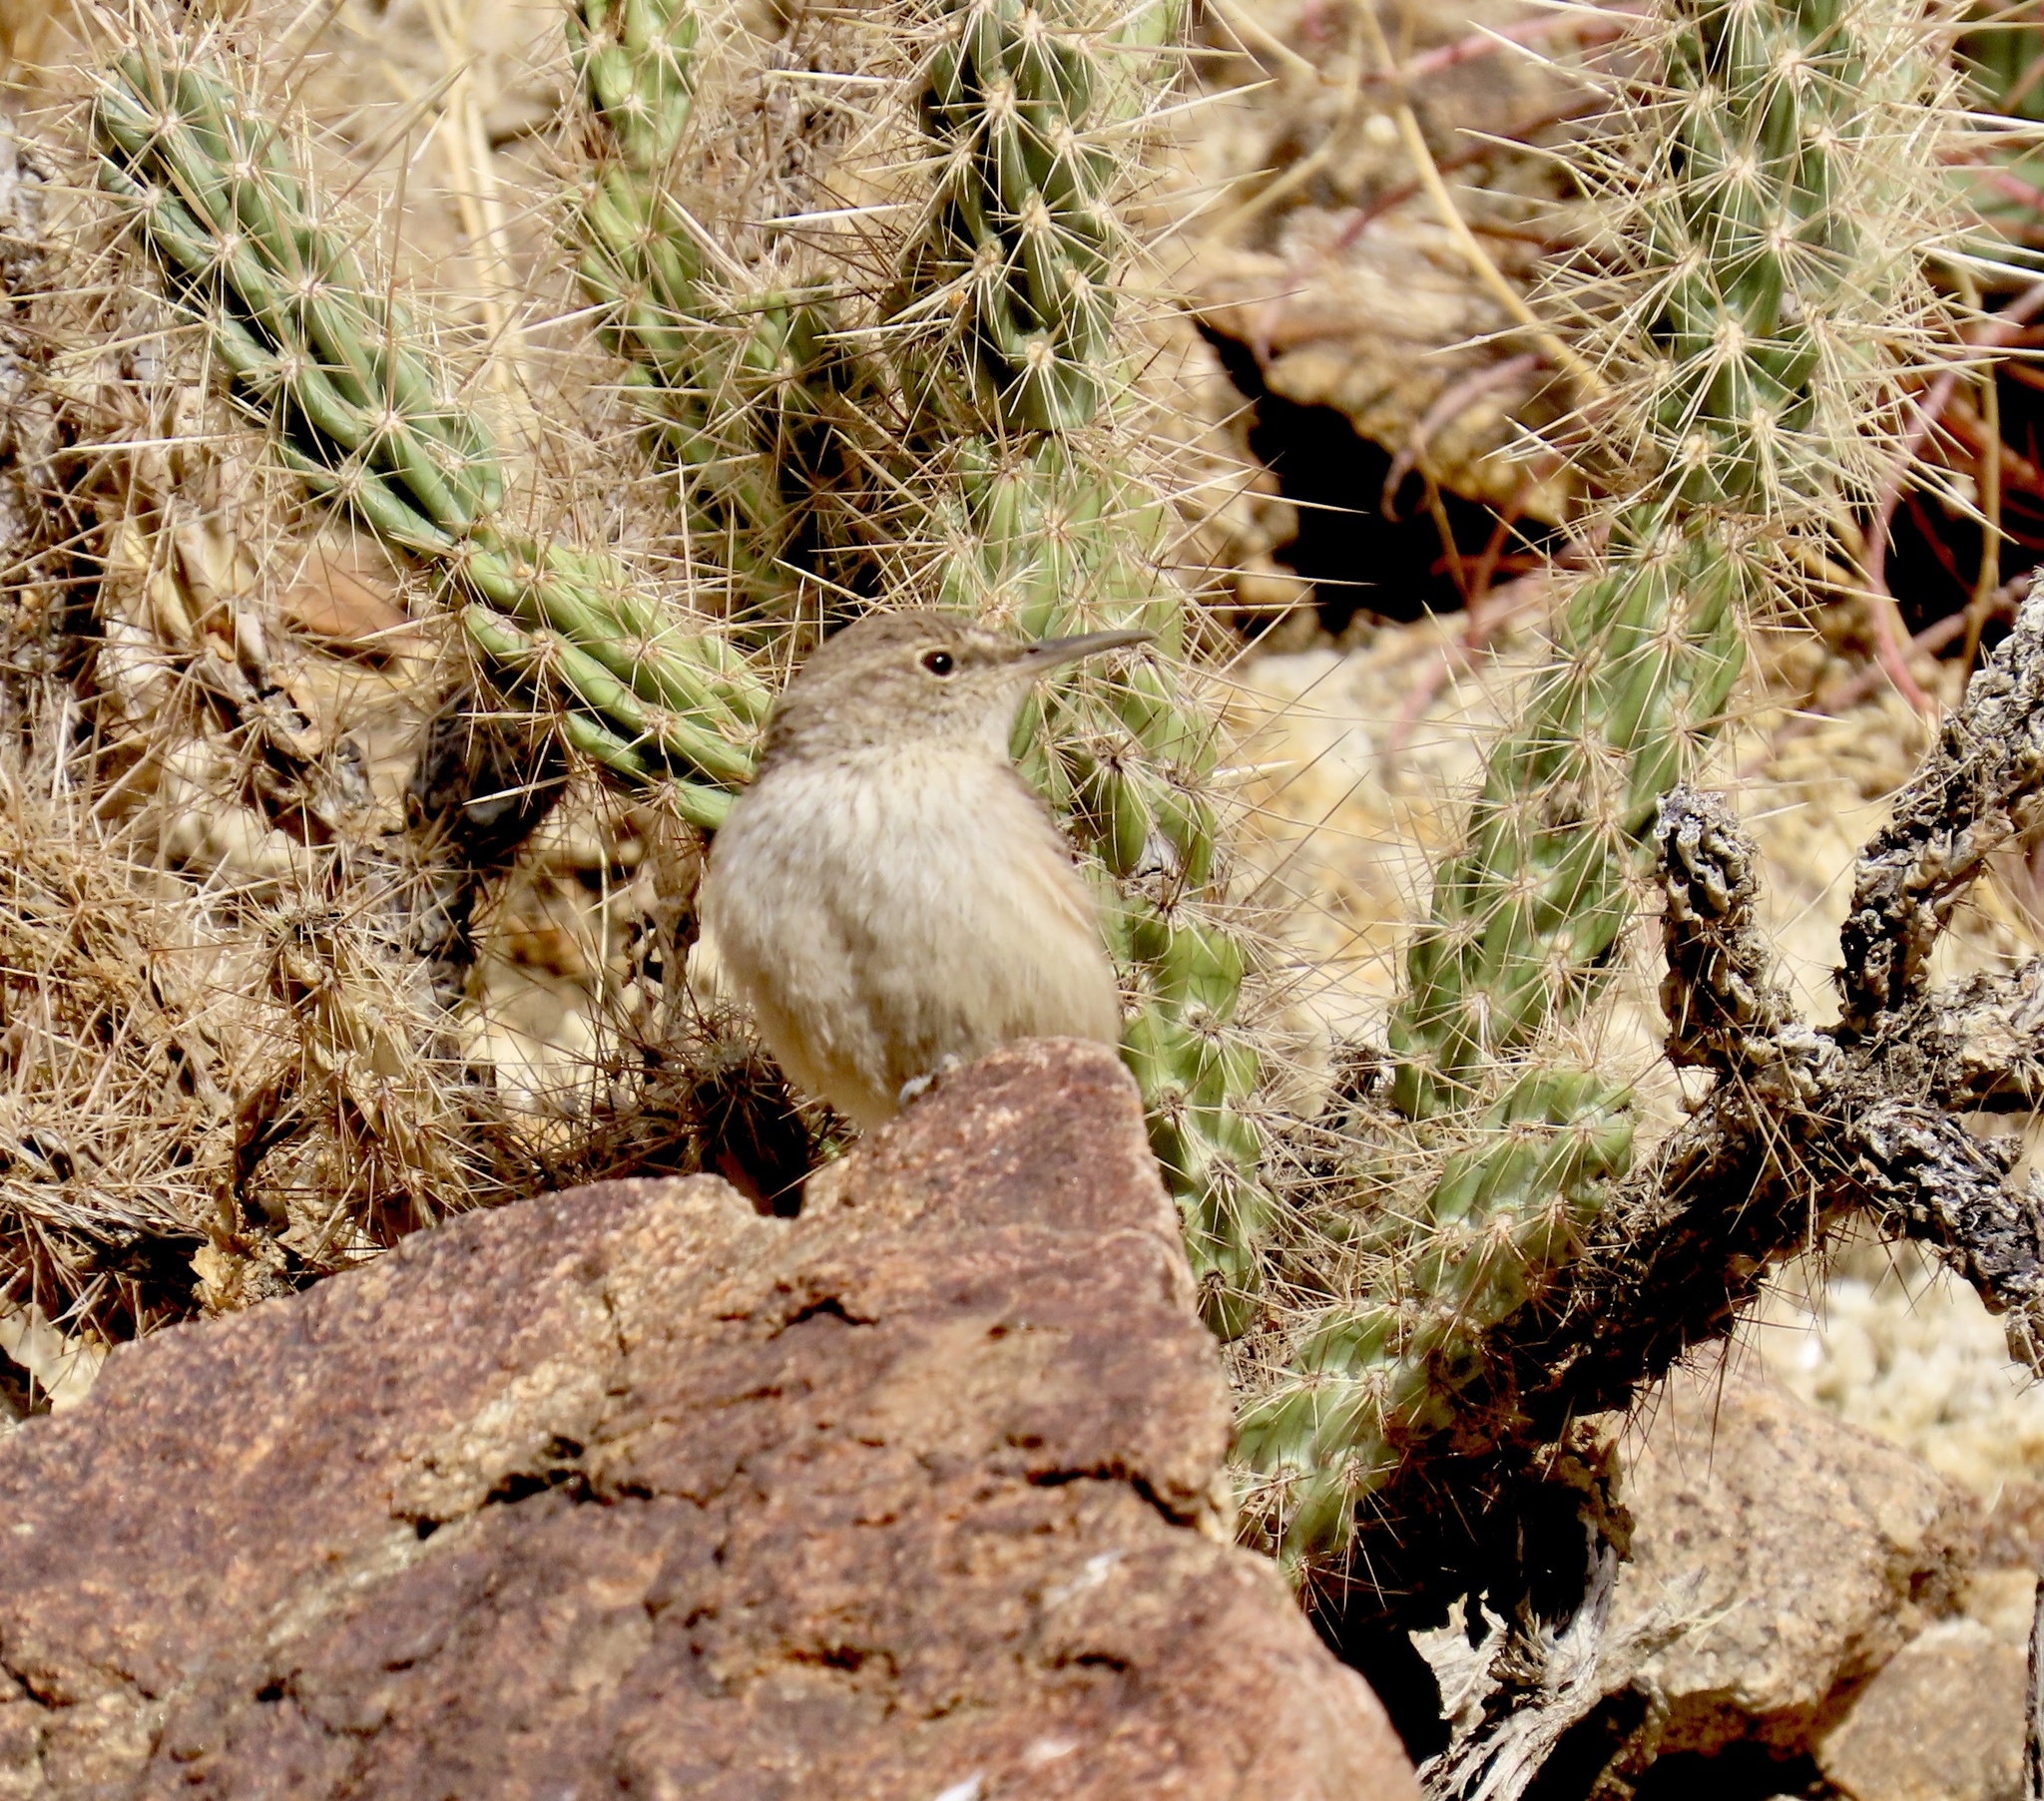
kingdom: Animalia
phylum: Chordata
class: Aves
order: Passeriformes
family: Troglodytidae
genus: Salpinctes
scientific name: Salpinctes obsoletus
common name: Rock wren
